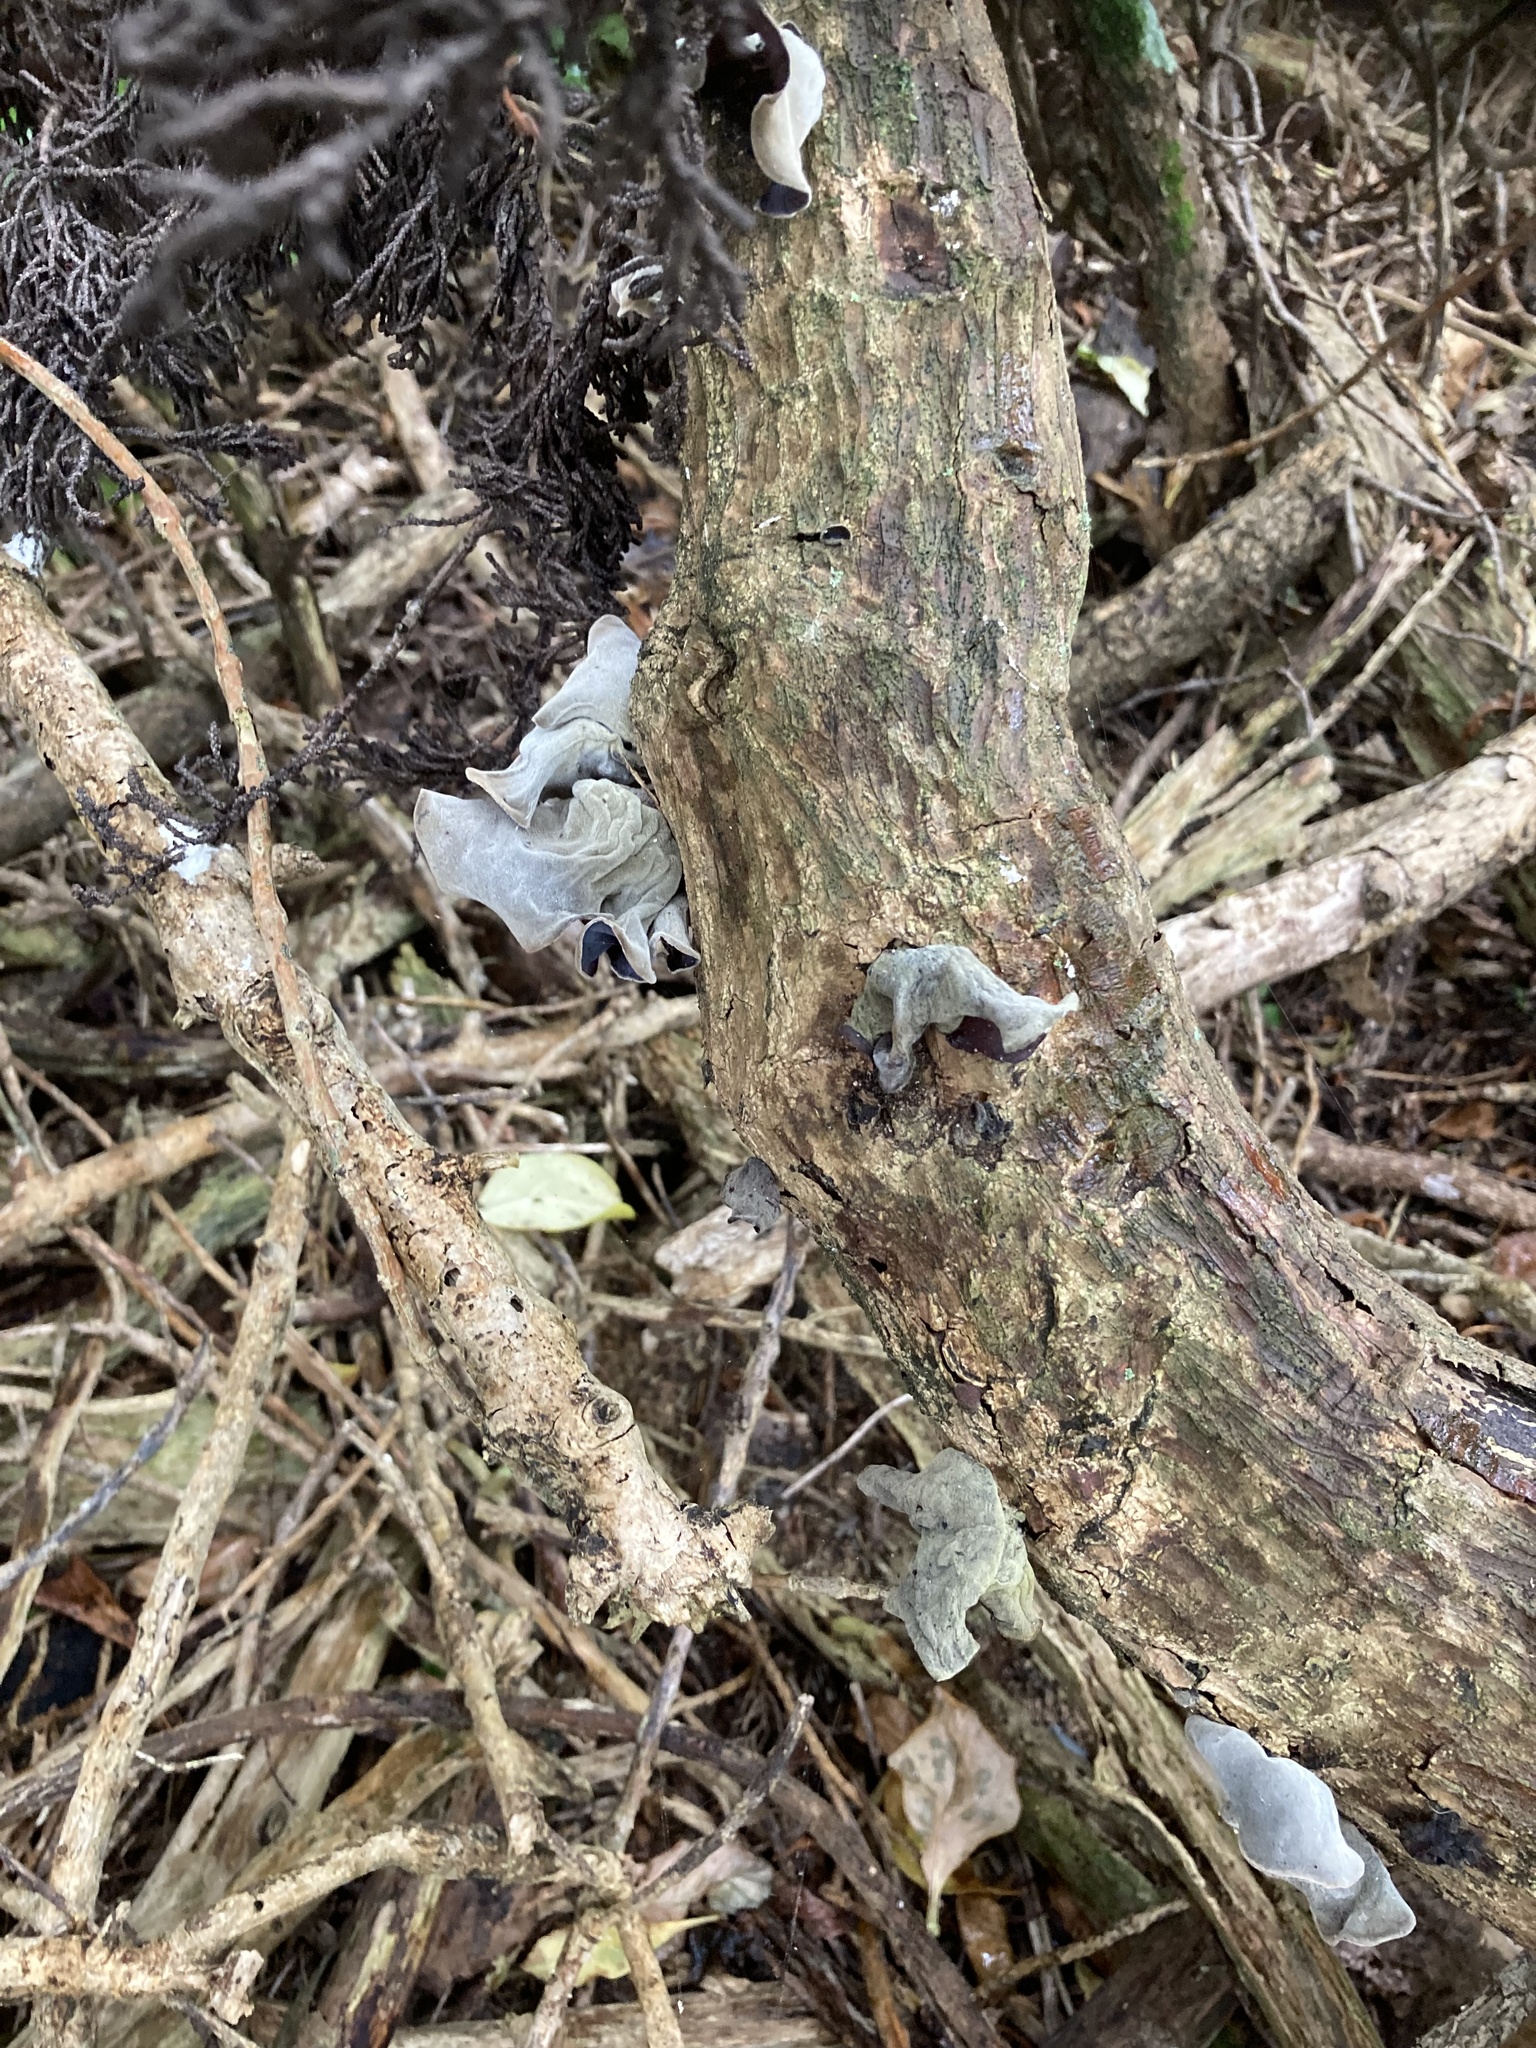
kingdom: Fungi
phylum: Basidiomycota
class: Agaricomycetes
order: Auriculariales
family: Auriculariaceae
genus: Auricularia
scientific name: Auricularia cornea
